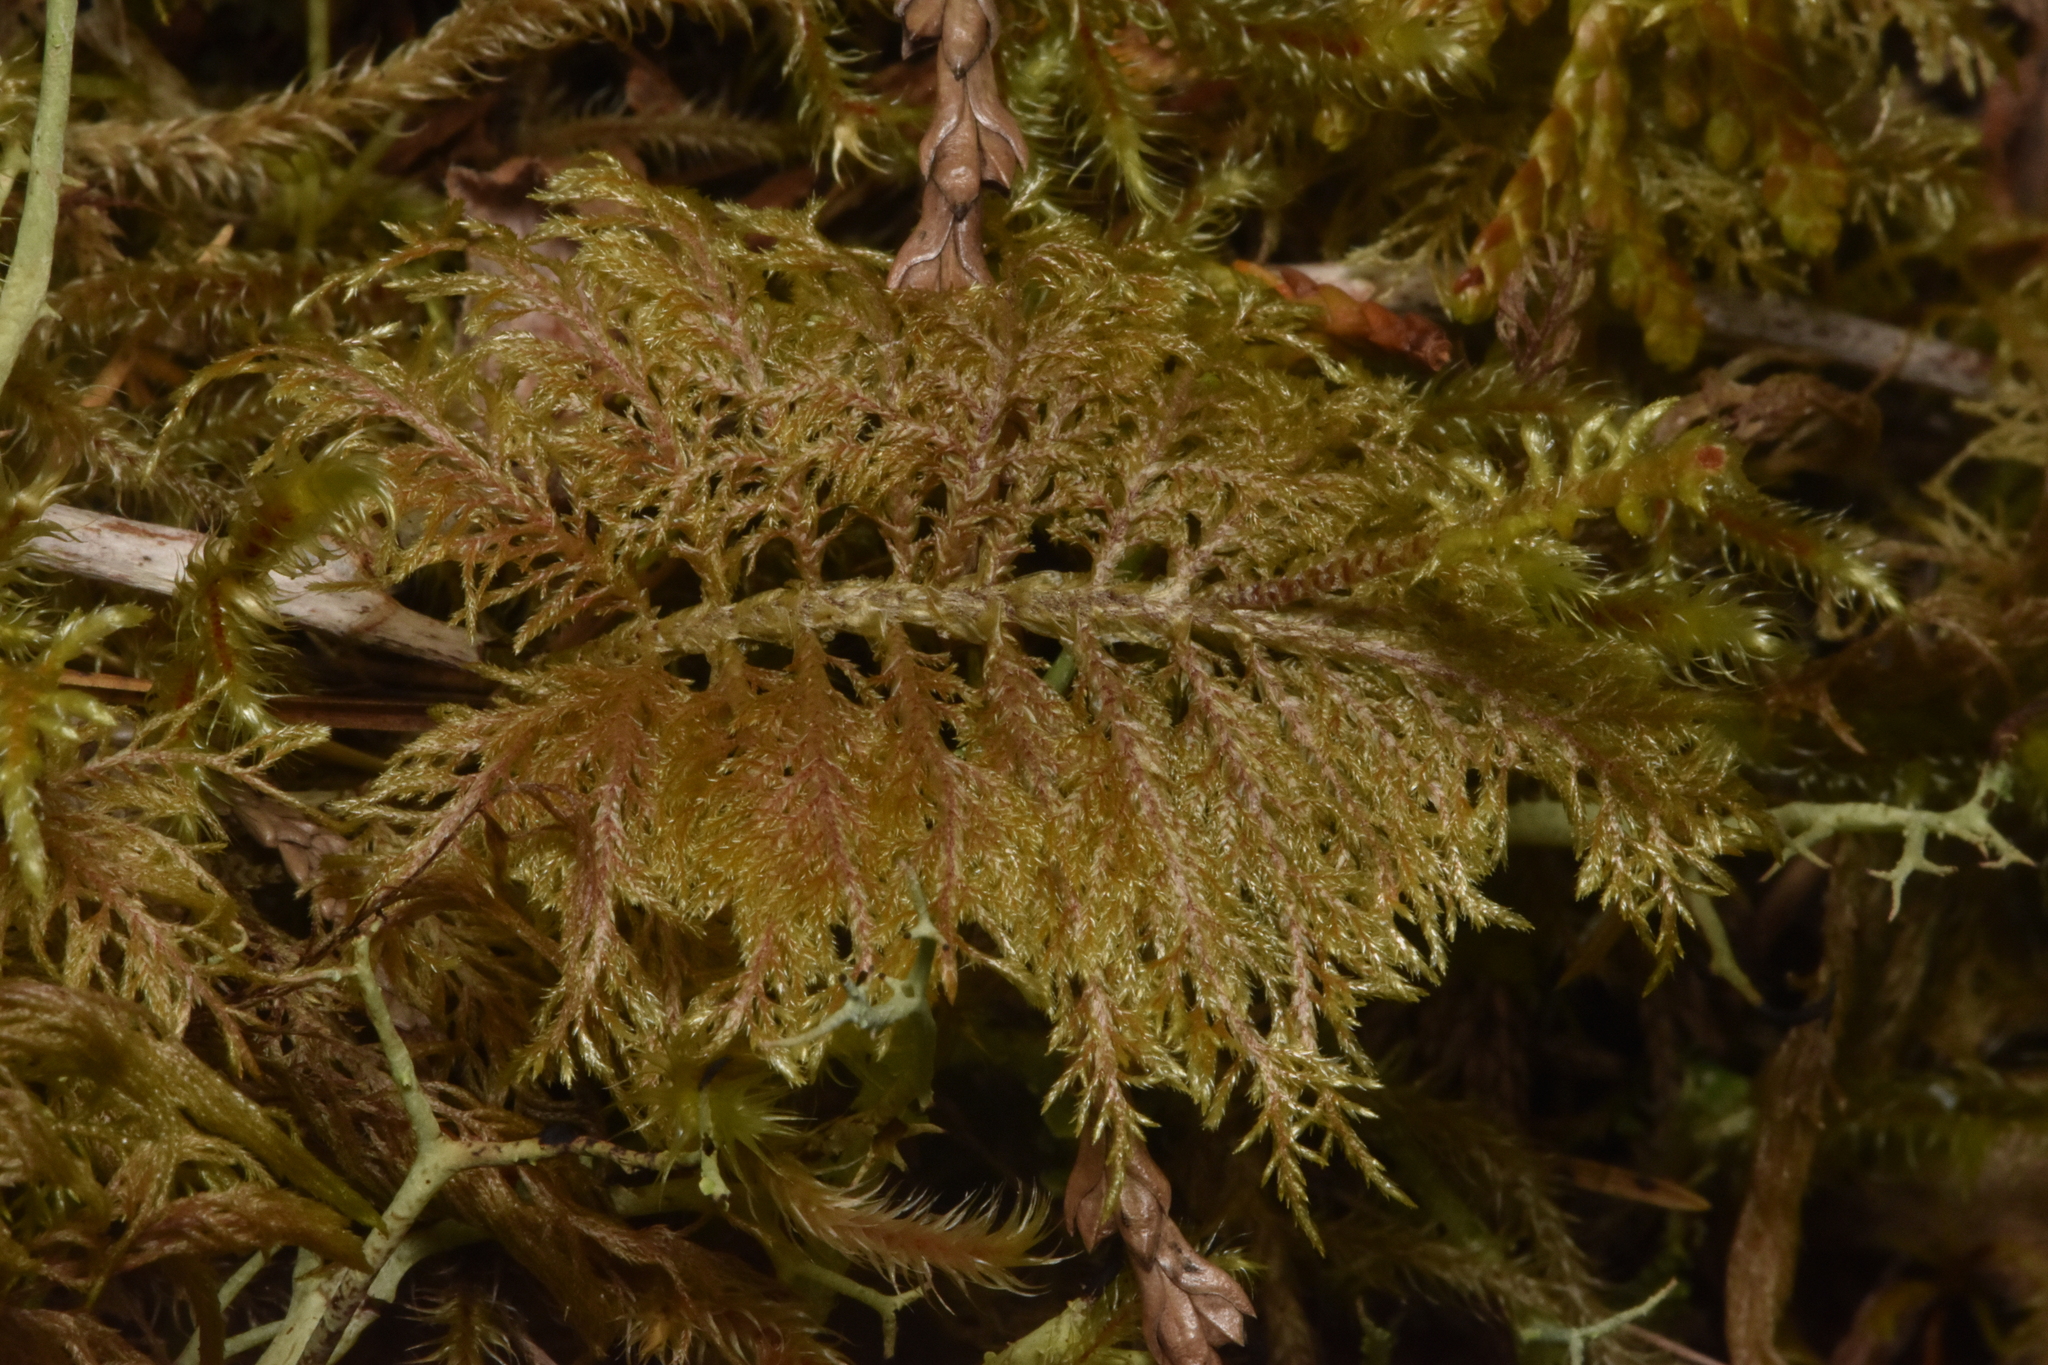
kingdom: Plantae
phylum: Bryophyta
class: Bryopsida
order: Hypnales
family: Hylocomiaceae
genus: Hylocomium
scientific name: Hylocomium splendens
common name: Stairstep moss
